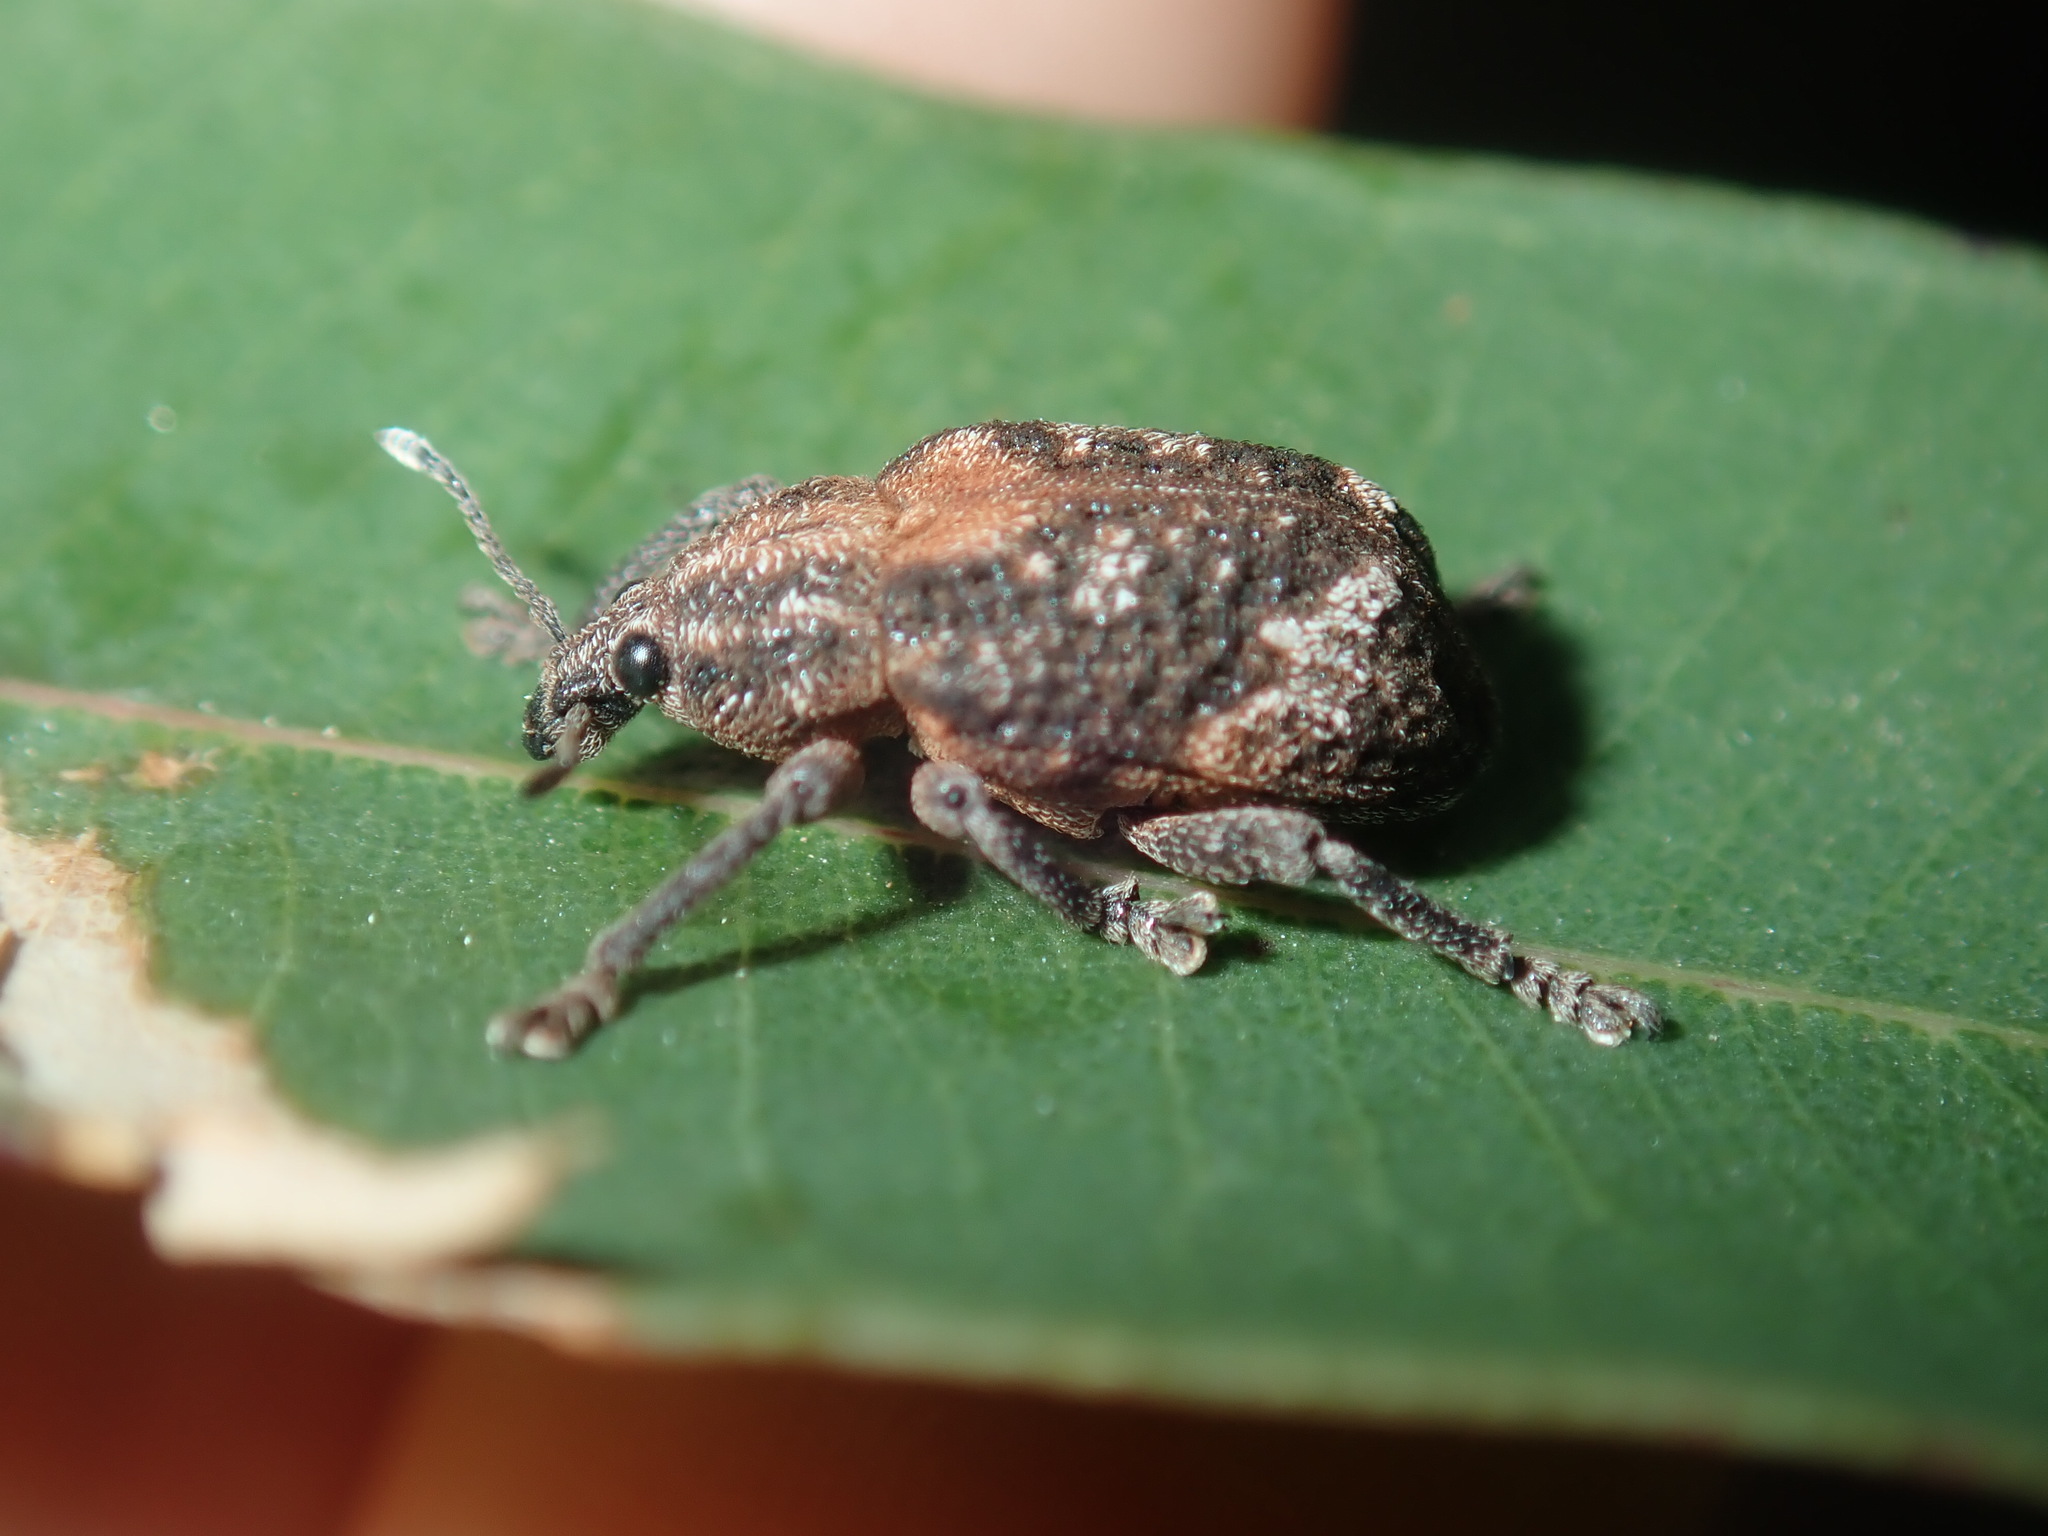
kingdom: Animalia
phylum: Arthropoda
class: Insecta
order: Coleoptera
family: Curculionidae
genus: Oxyops
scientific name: Oxyops fasciatus
